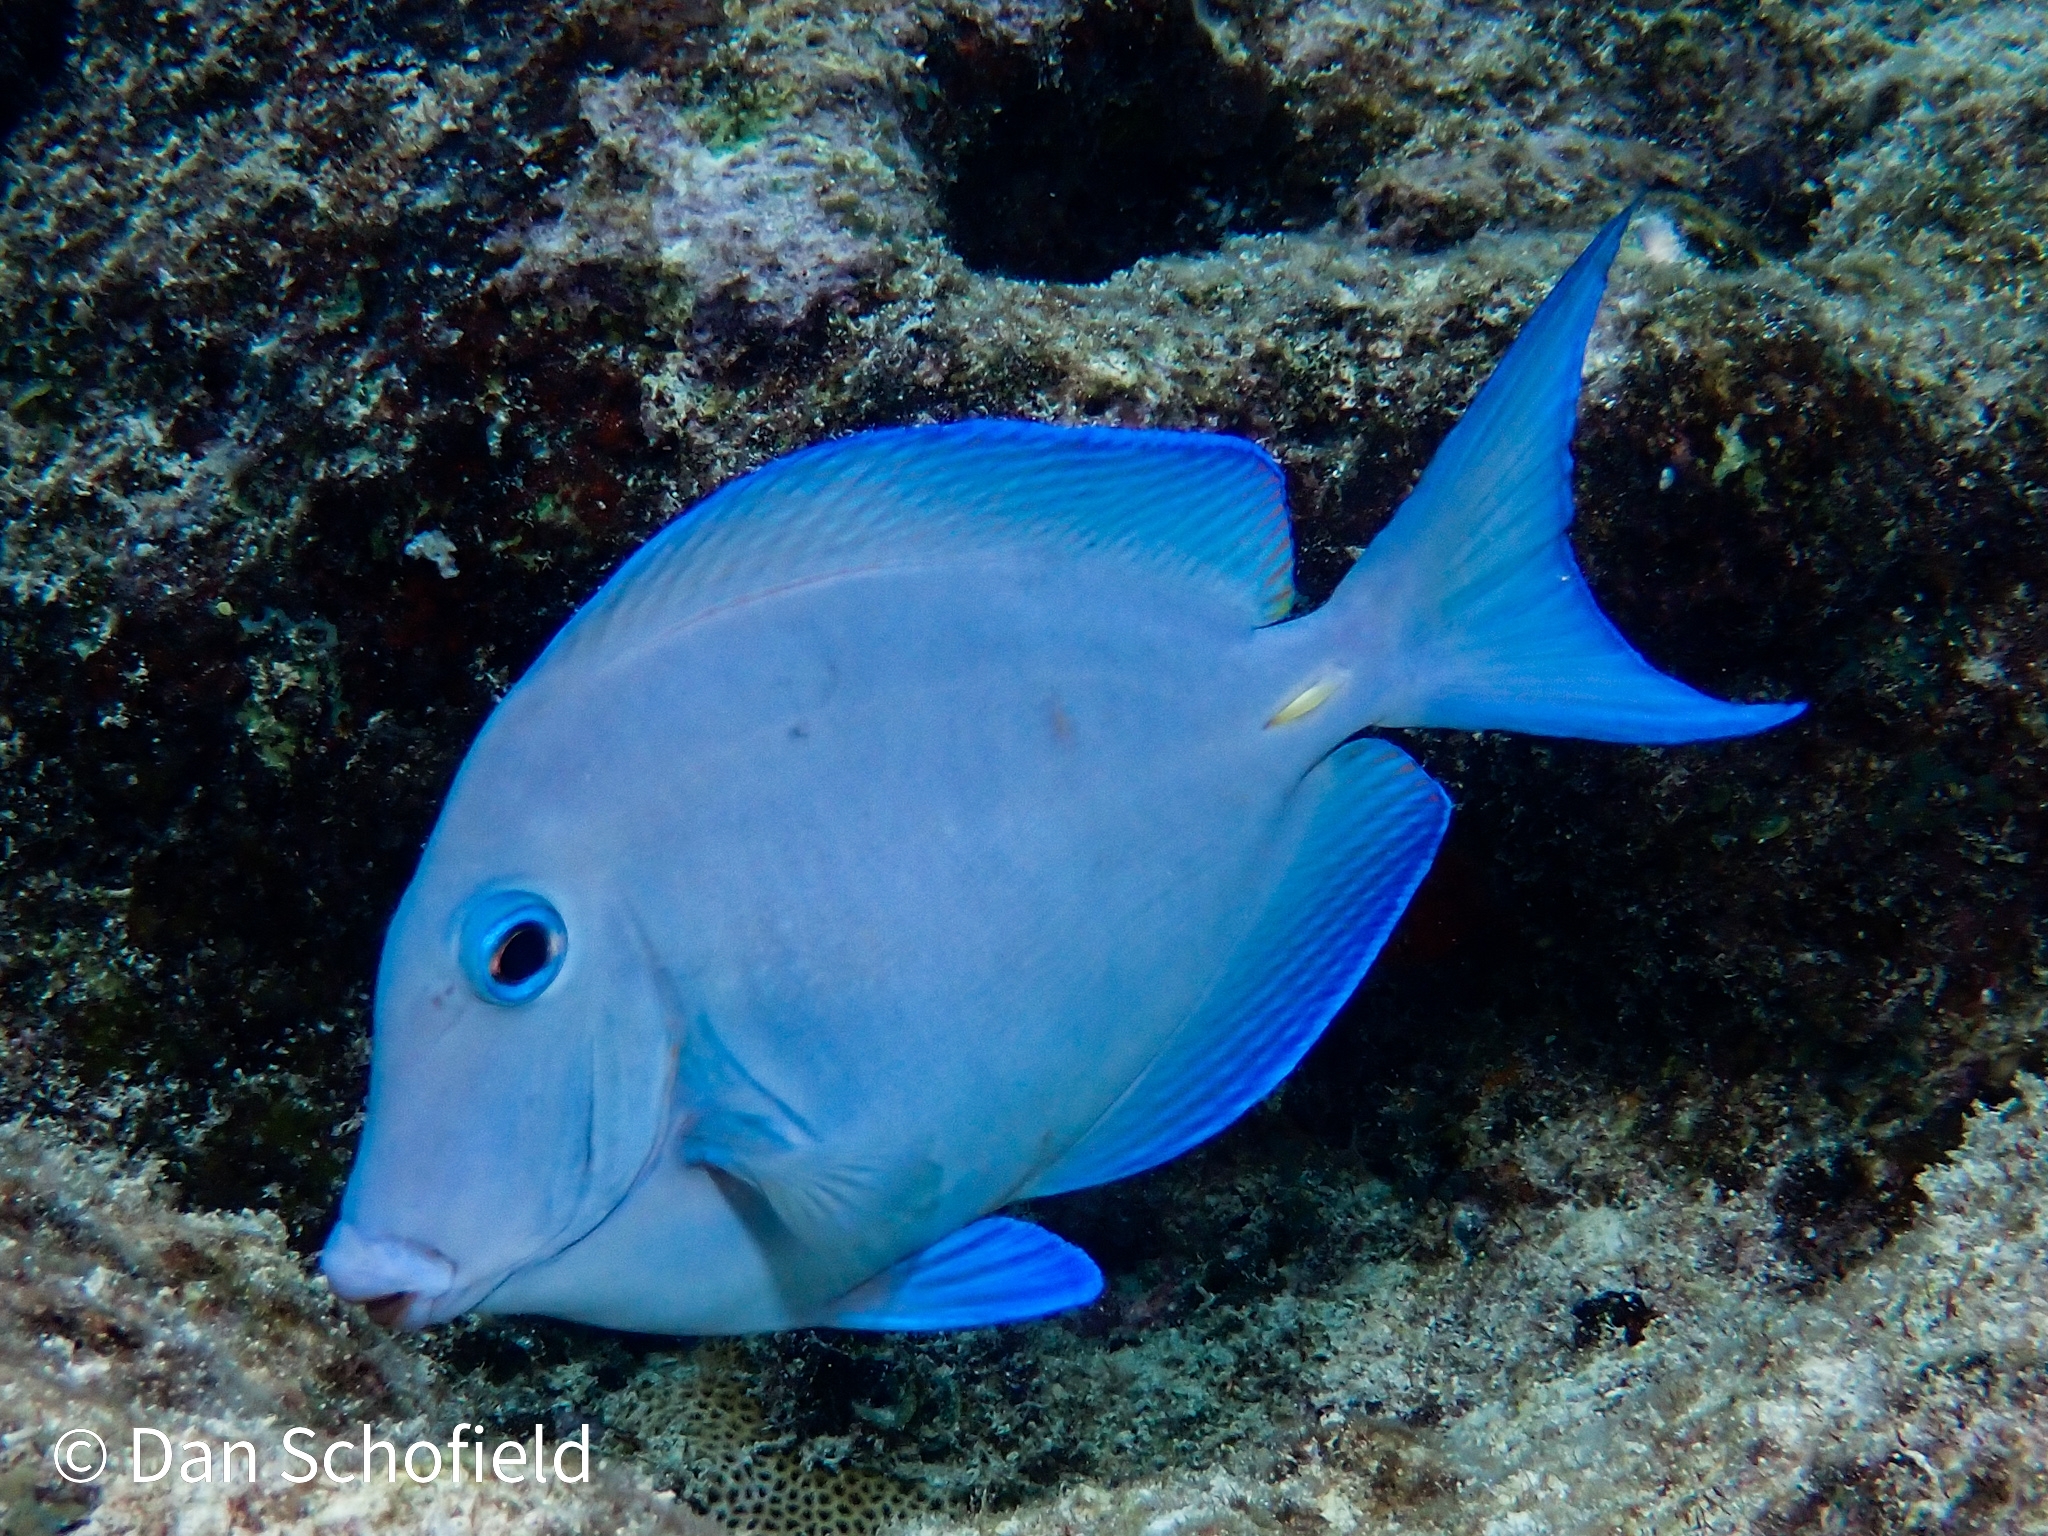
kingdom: Animalia
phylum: Chordata
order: Perciformes
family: Acanthuridae
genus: Acanthurus
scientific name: Acanthurus coeruleus
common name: Blue tang
